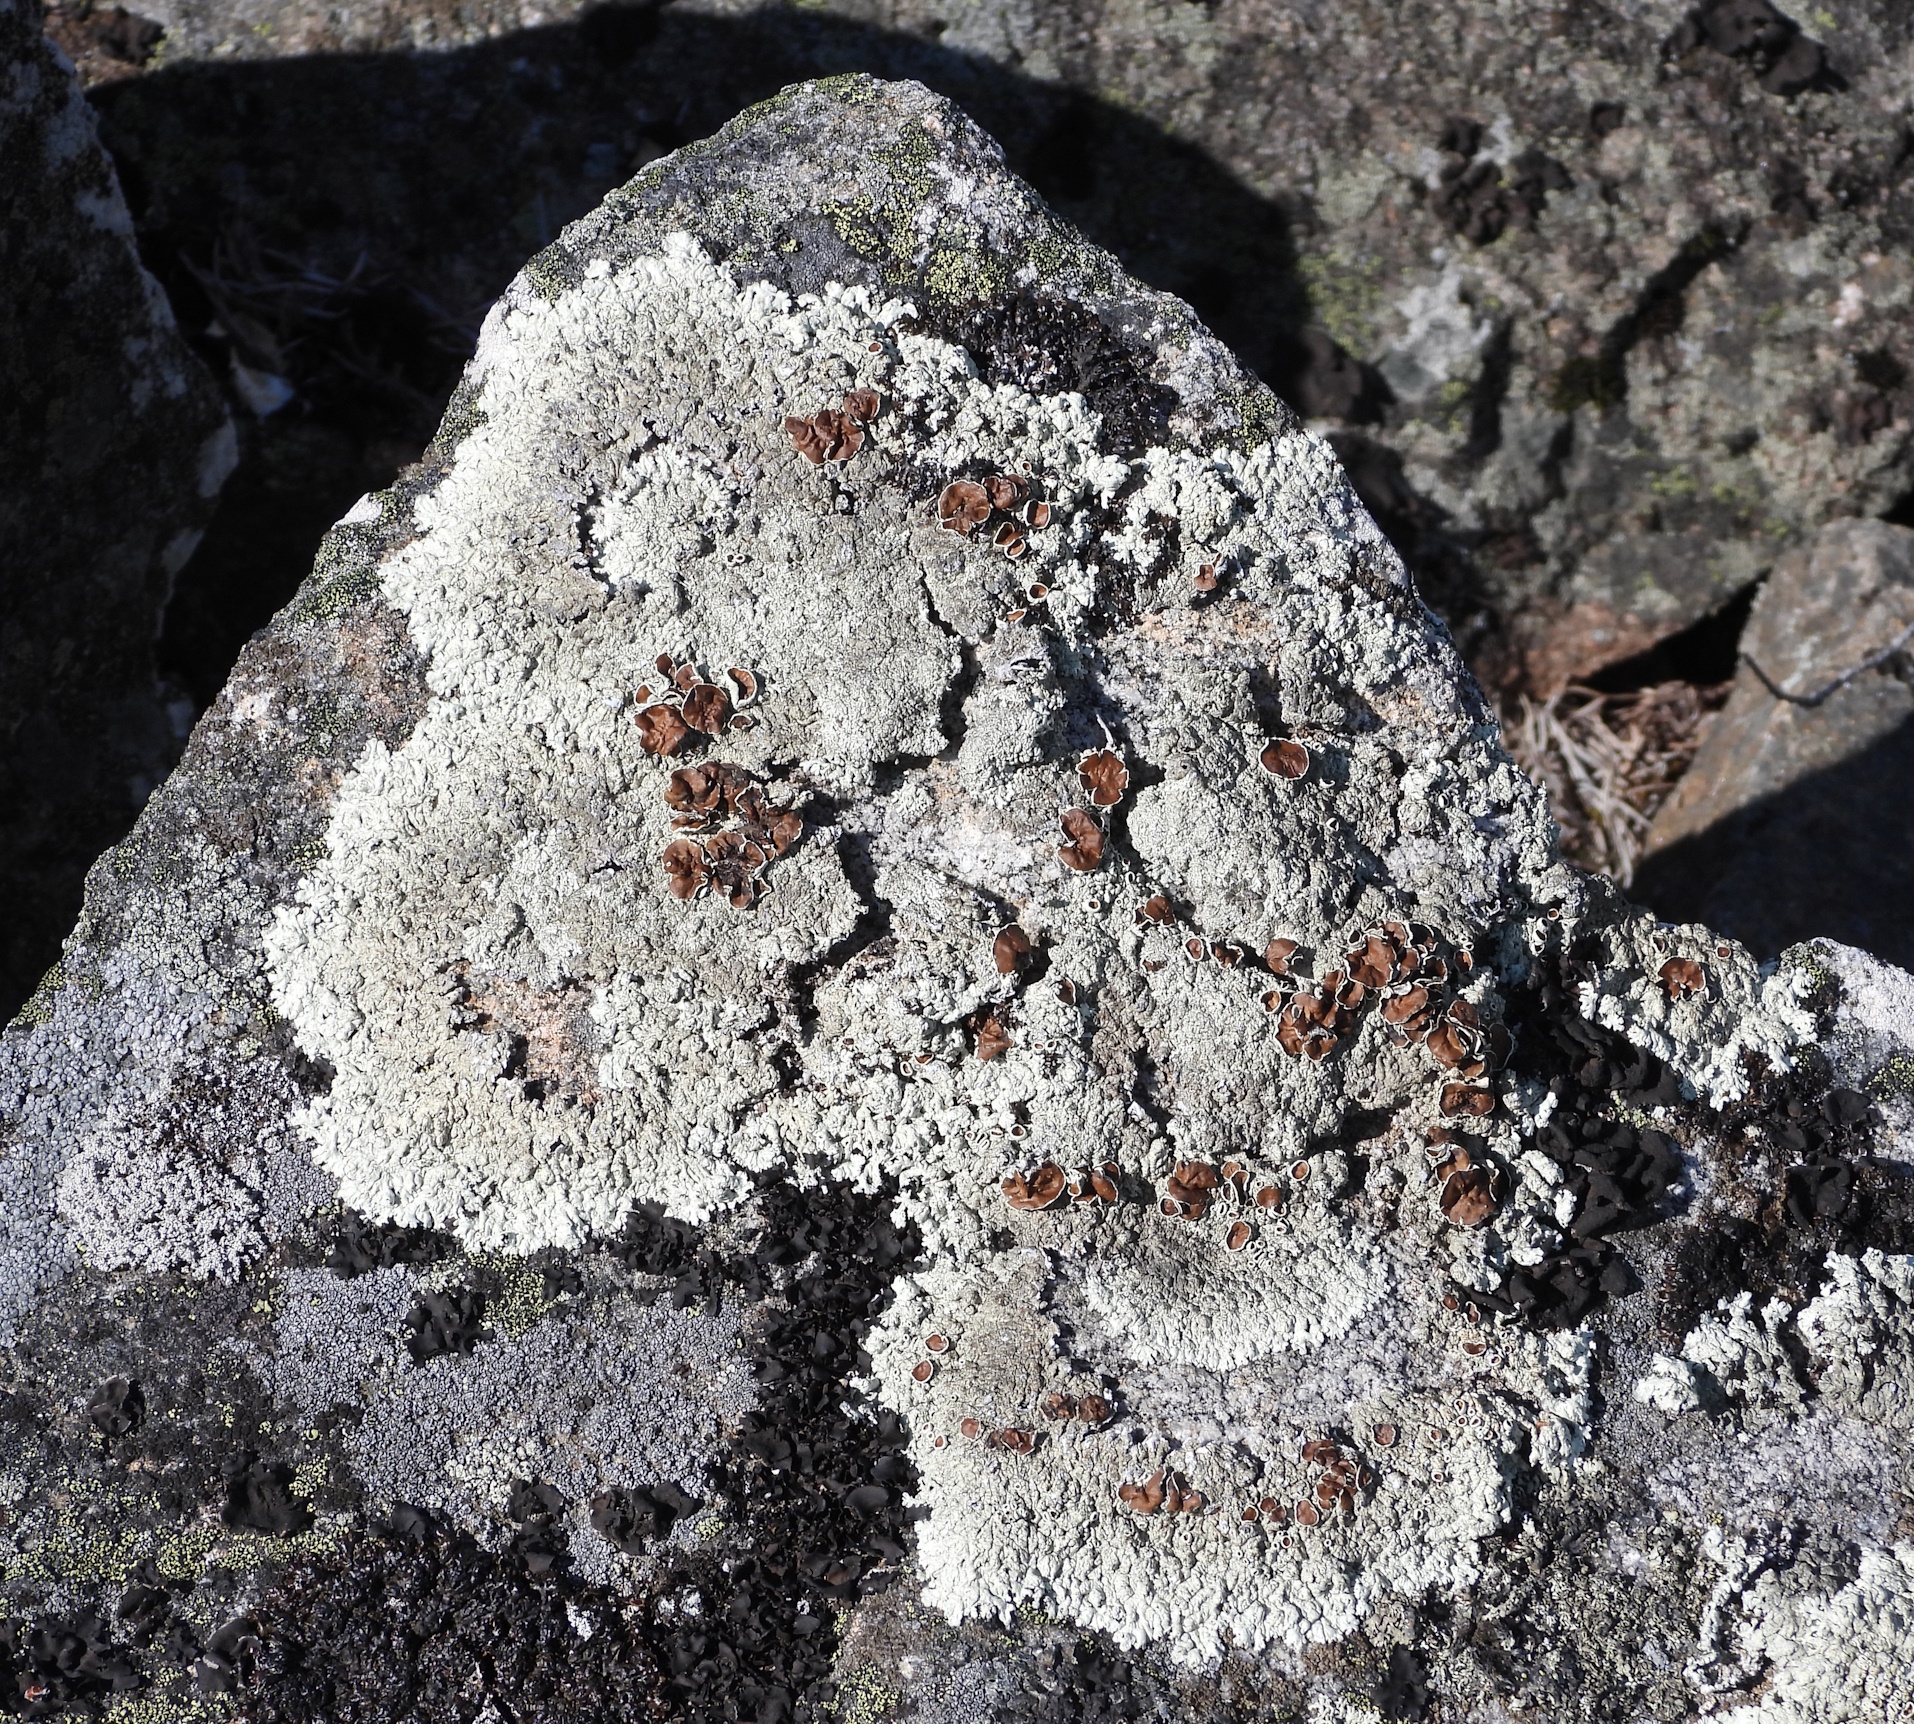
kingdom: Fungi
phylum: Ascomycota
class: Lecanoromycetes
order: Lecanorales
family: Parmeliaceae
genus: Arctoparmelia
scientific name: Arctoparmelia centrifuga
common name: Concentric ring lichen
